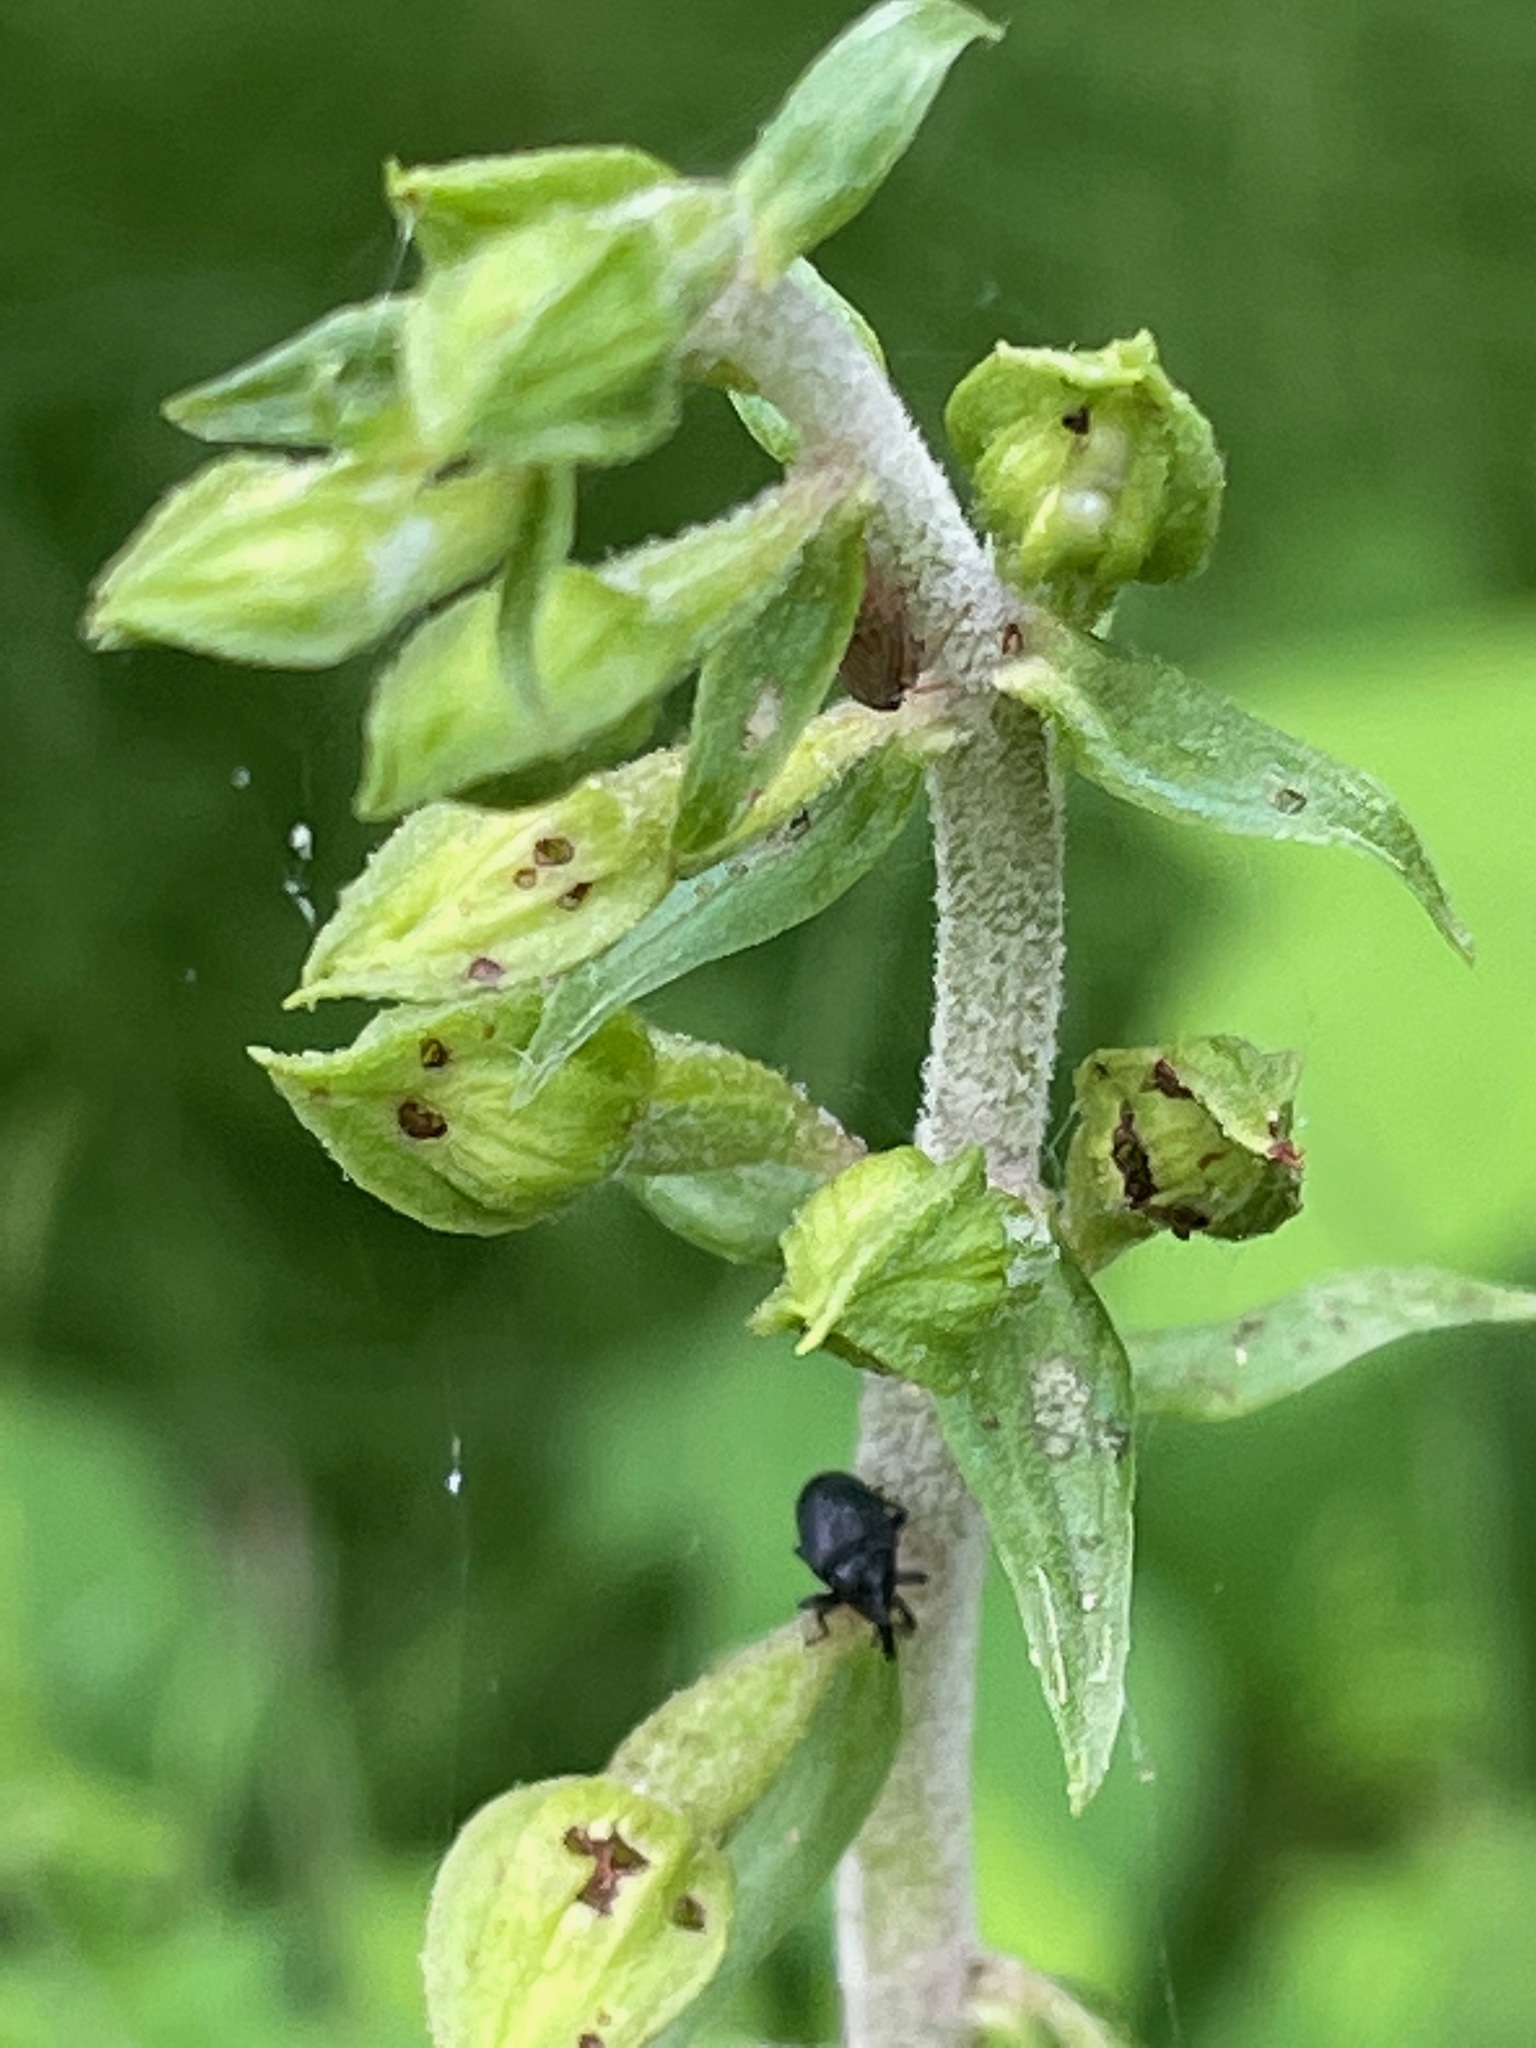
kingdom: Plantae
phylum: Tracheophyta
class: Liliopsida
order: Asparagales
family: Orchidaceae
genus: Epipactis
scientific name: Epipactis helleborine
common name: Broad-leaved helleborine
